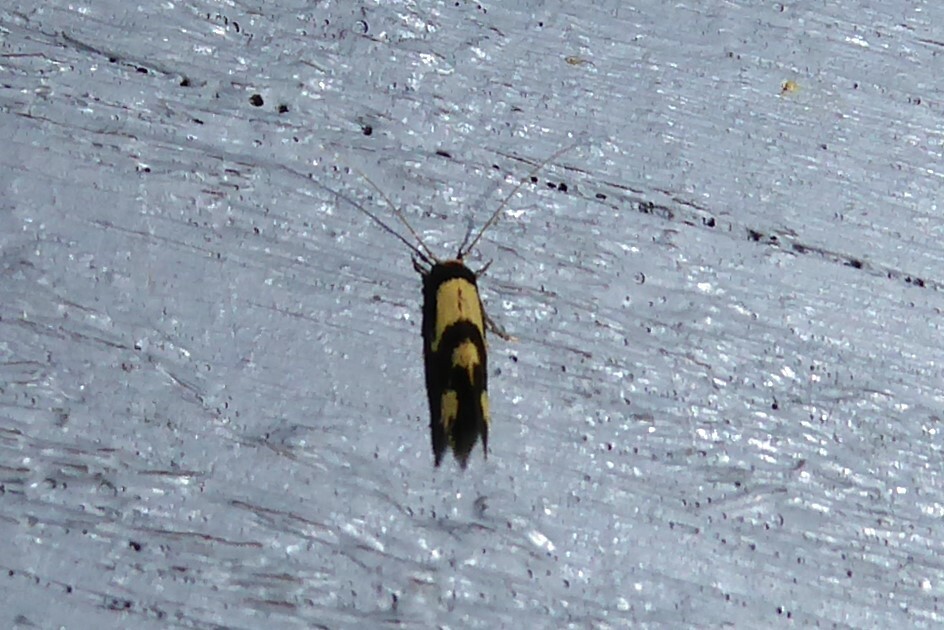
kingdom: Animalia
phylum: Arthropoda
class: Insecta
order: Lepidoptera
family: Tineidae
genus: Opogona
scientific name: Opogona comptella
